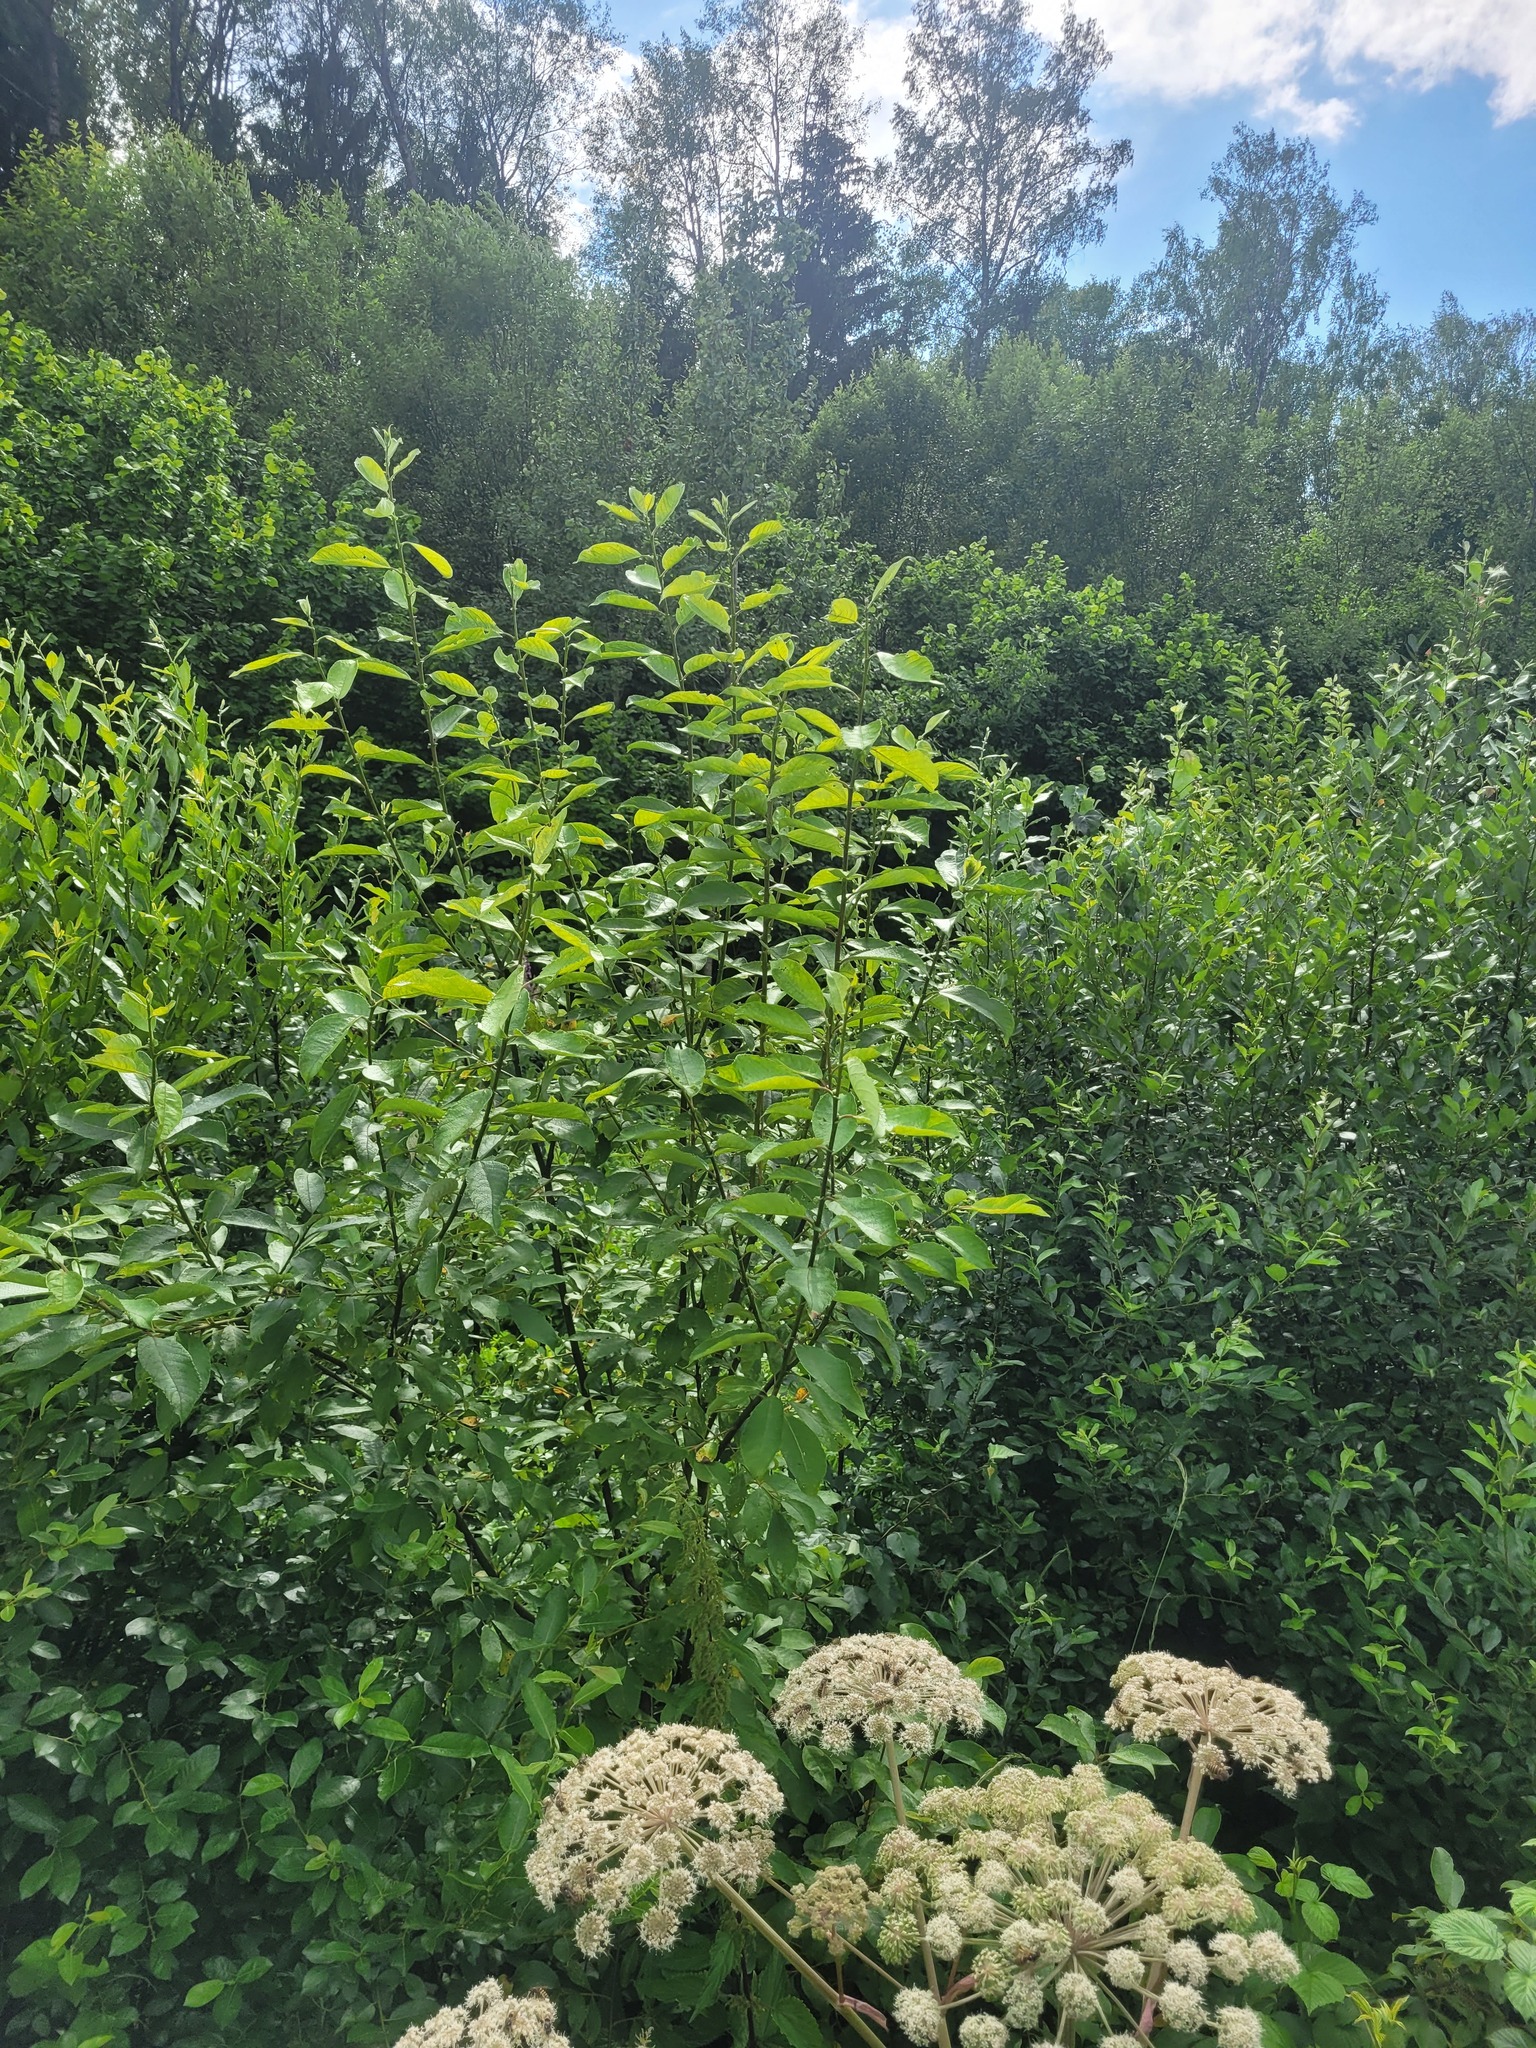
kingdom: Plantae
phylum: Tracheophyta
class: Magnoliopsida
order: Malpighiales
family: Salicaceae
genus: Salix
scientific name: Salix caprea
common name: Goat willow
